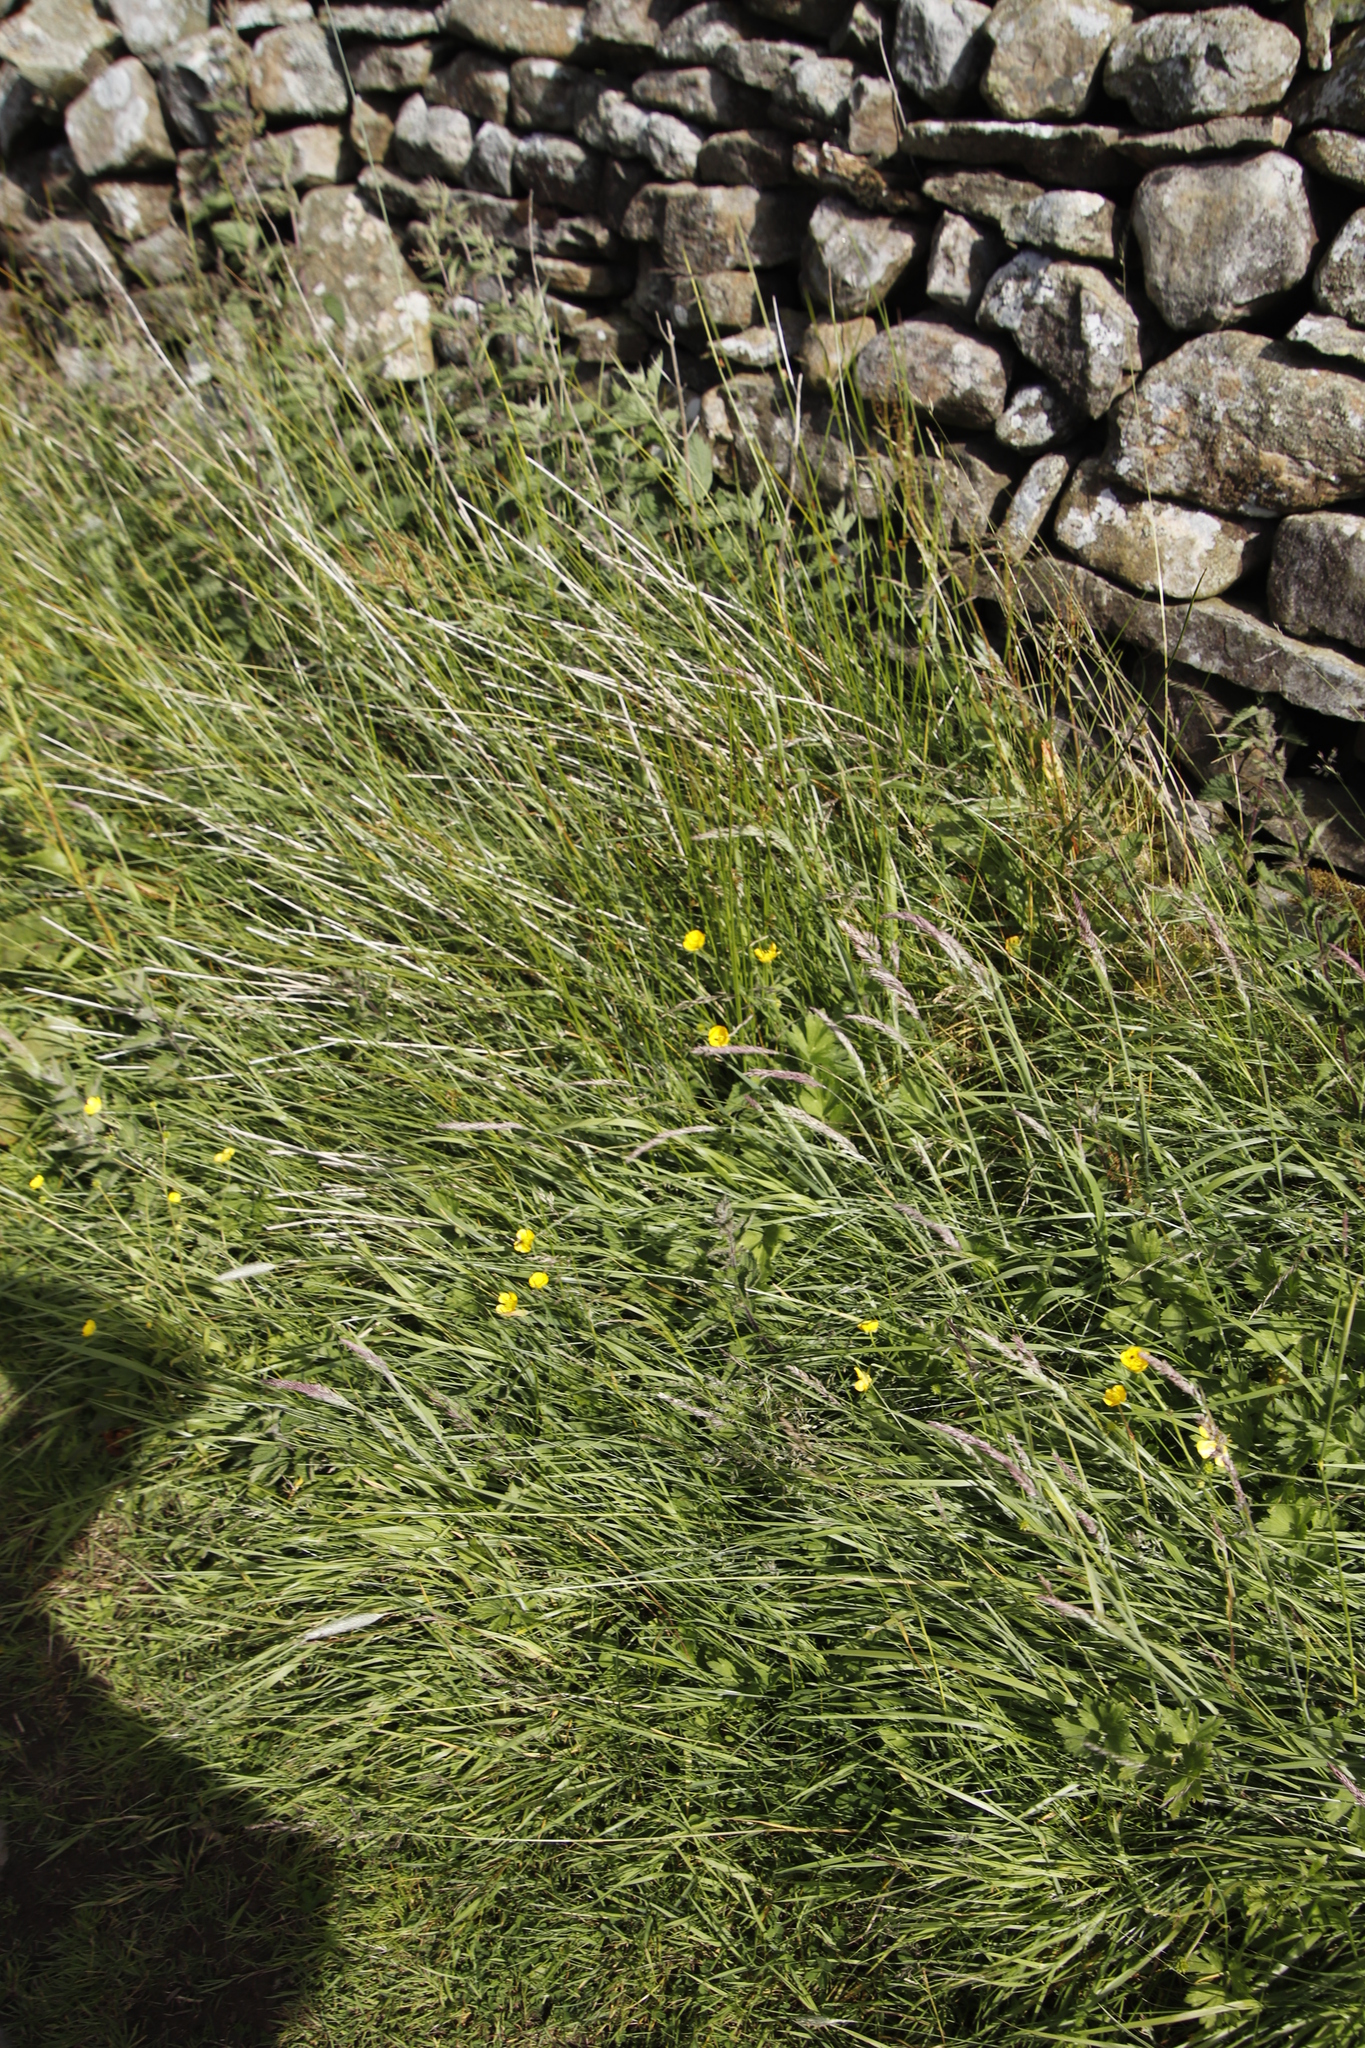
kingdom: Plantae
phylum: Tracheophyta
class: Liliopsida
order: Poales
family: Poaceae
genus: Holcus
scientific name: Holcus lanatus
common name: Yorkshire-fog
